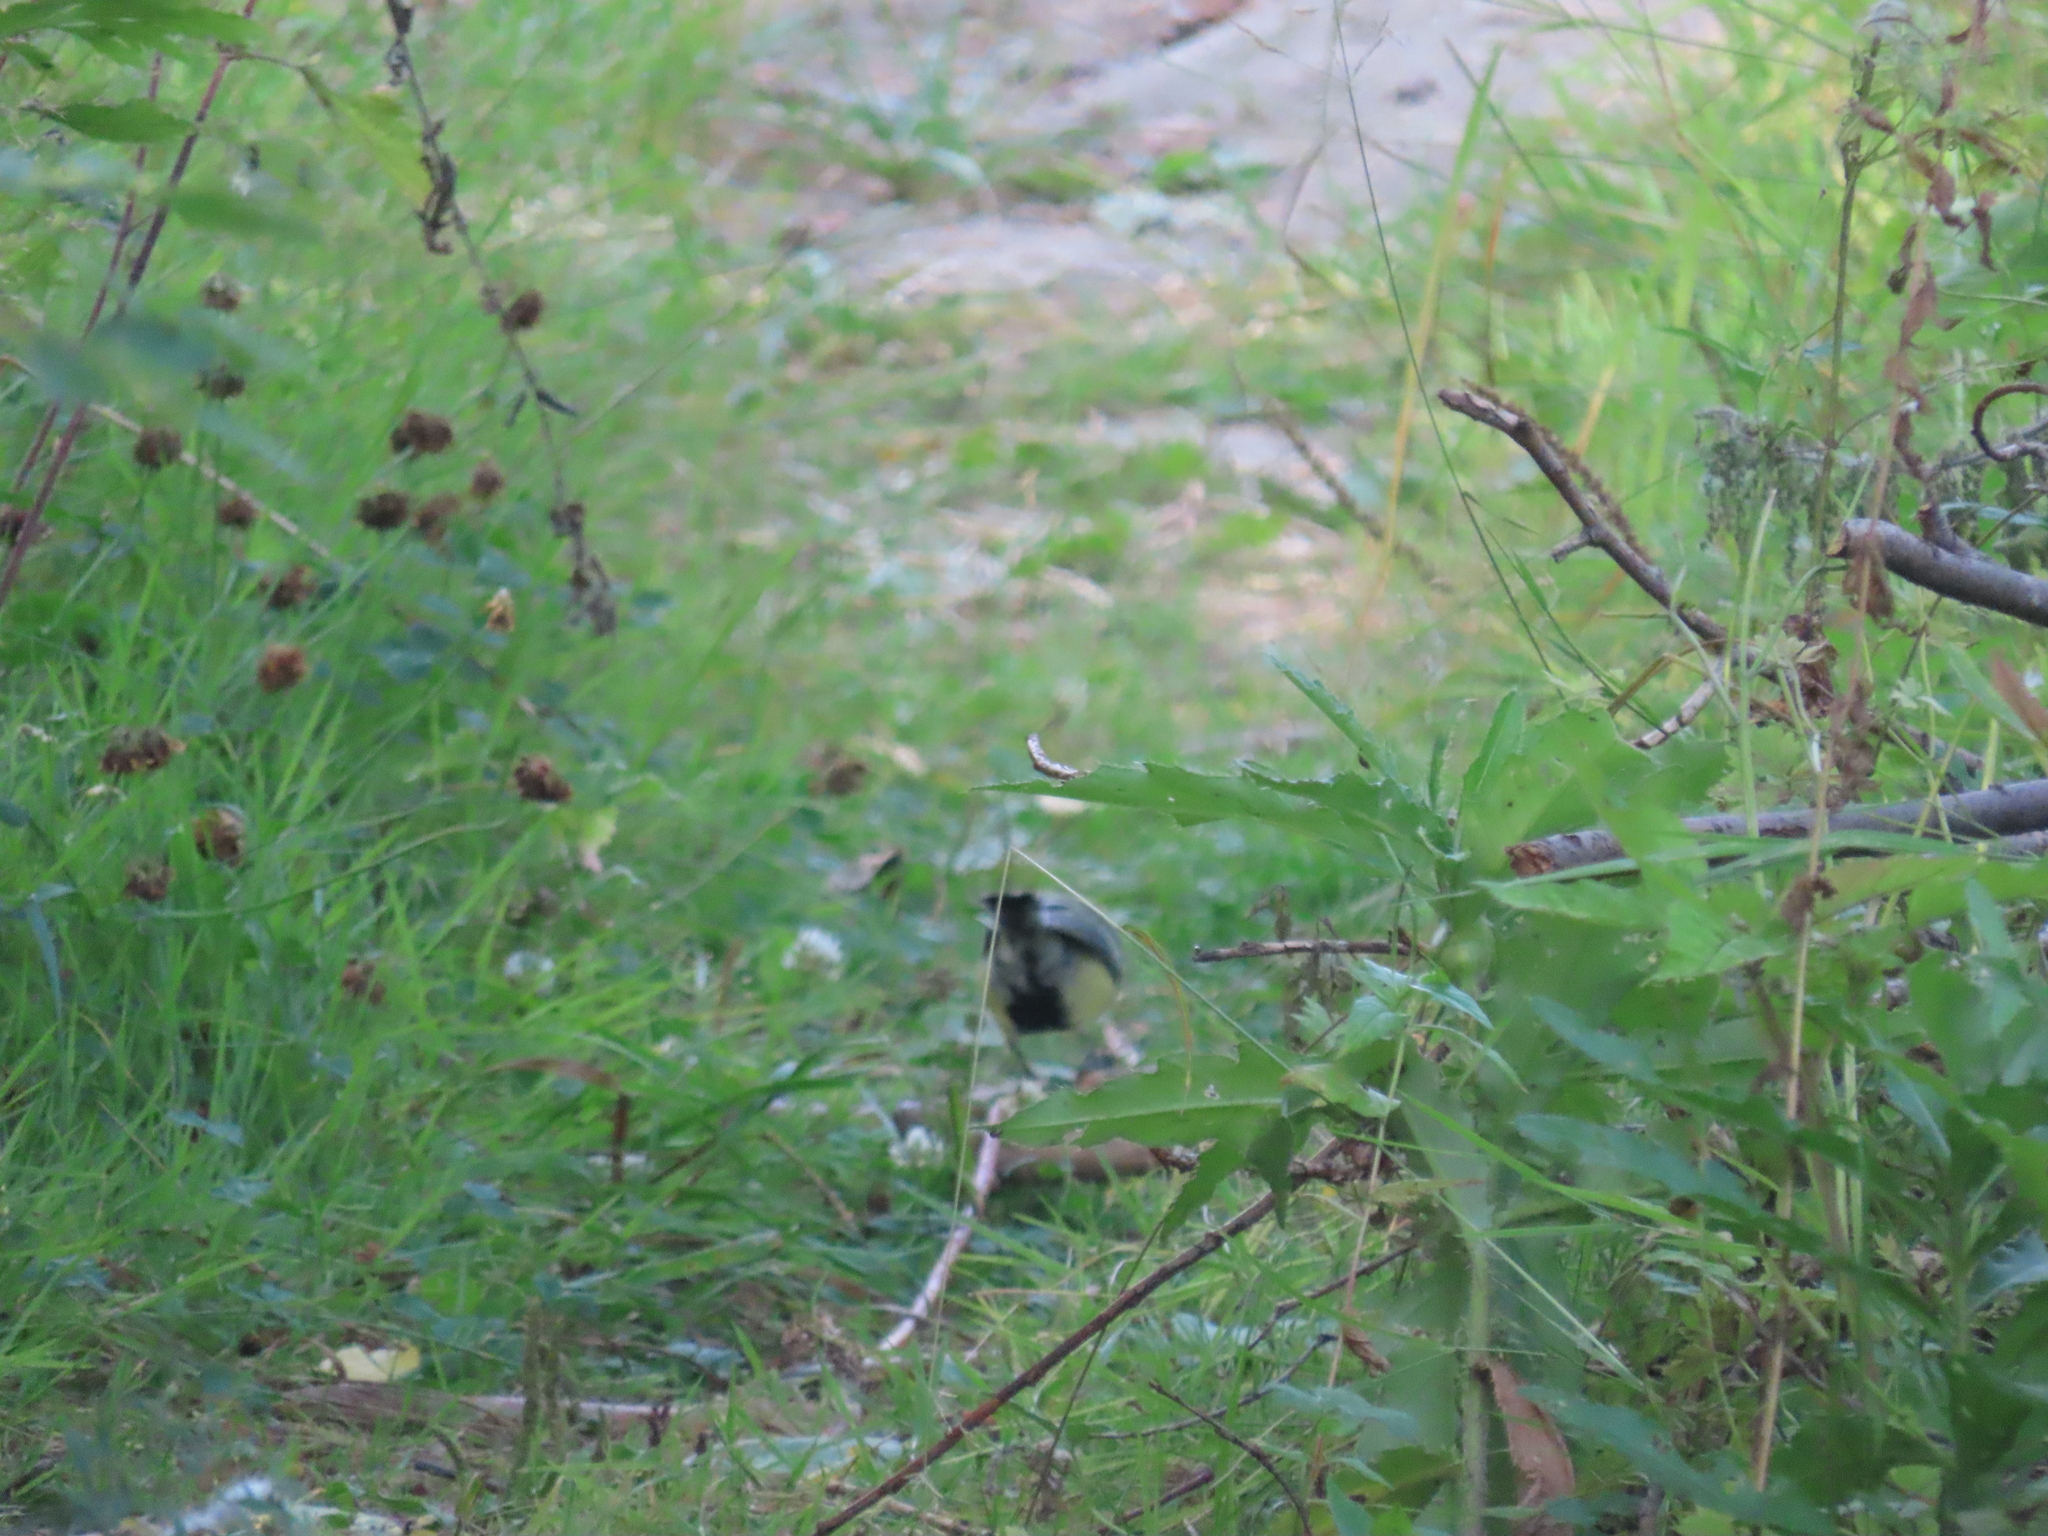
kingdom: Animalia
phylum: Chordata
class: Aves
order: Passeriformes
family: Paridae
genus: Parus
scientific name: Parus major
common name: Great tit
